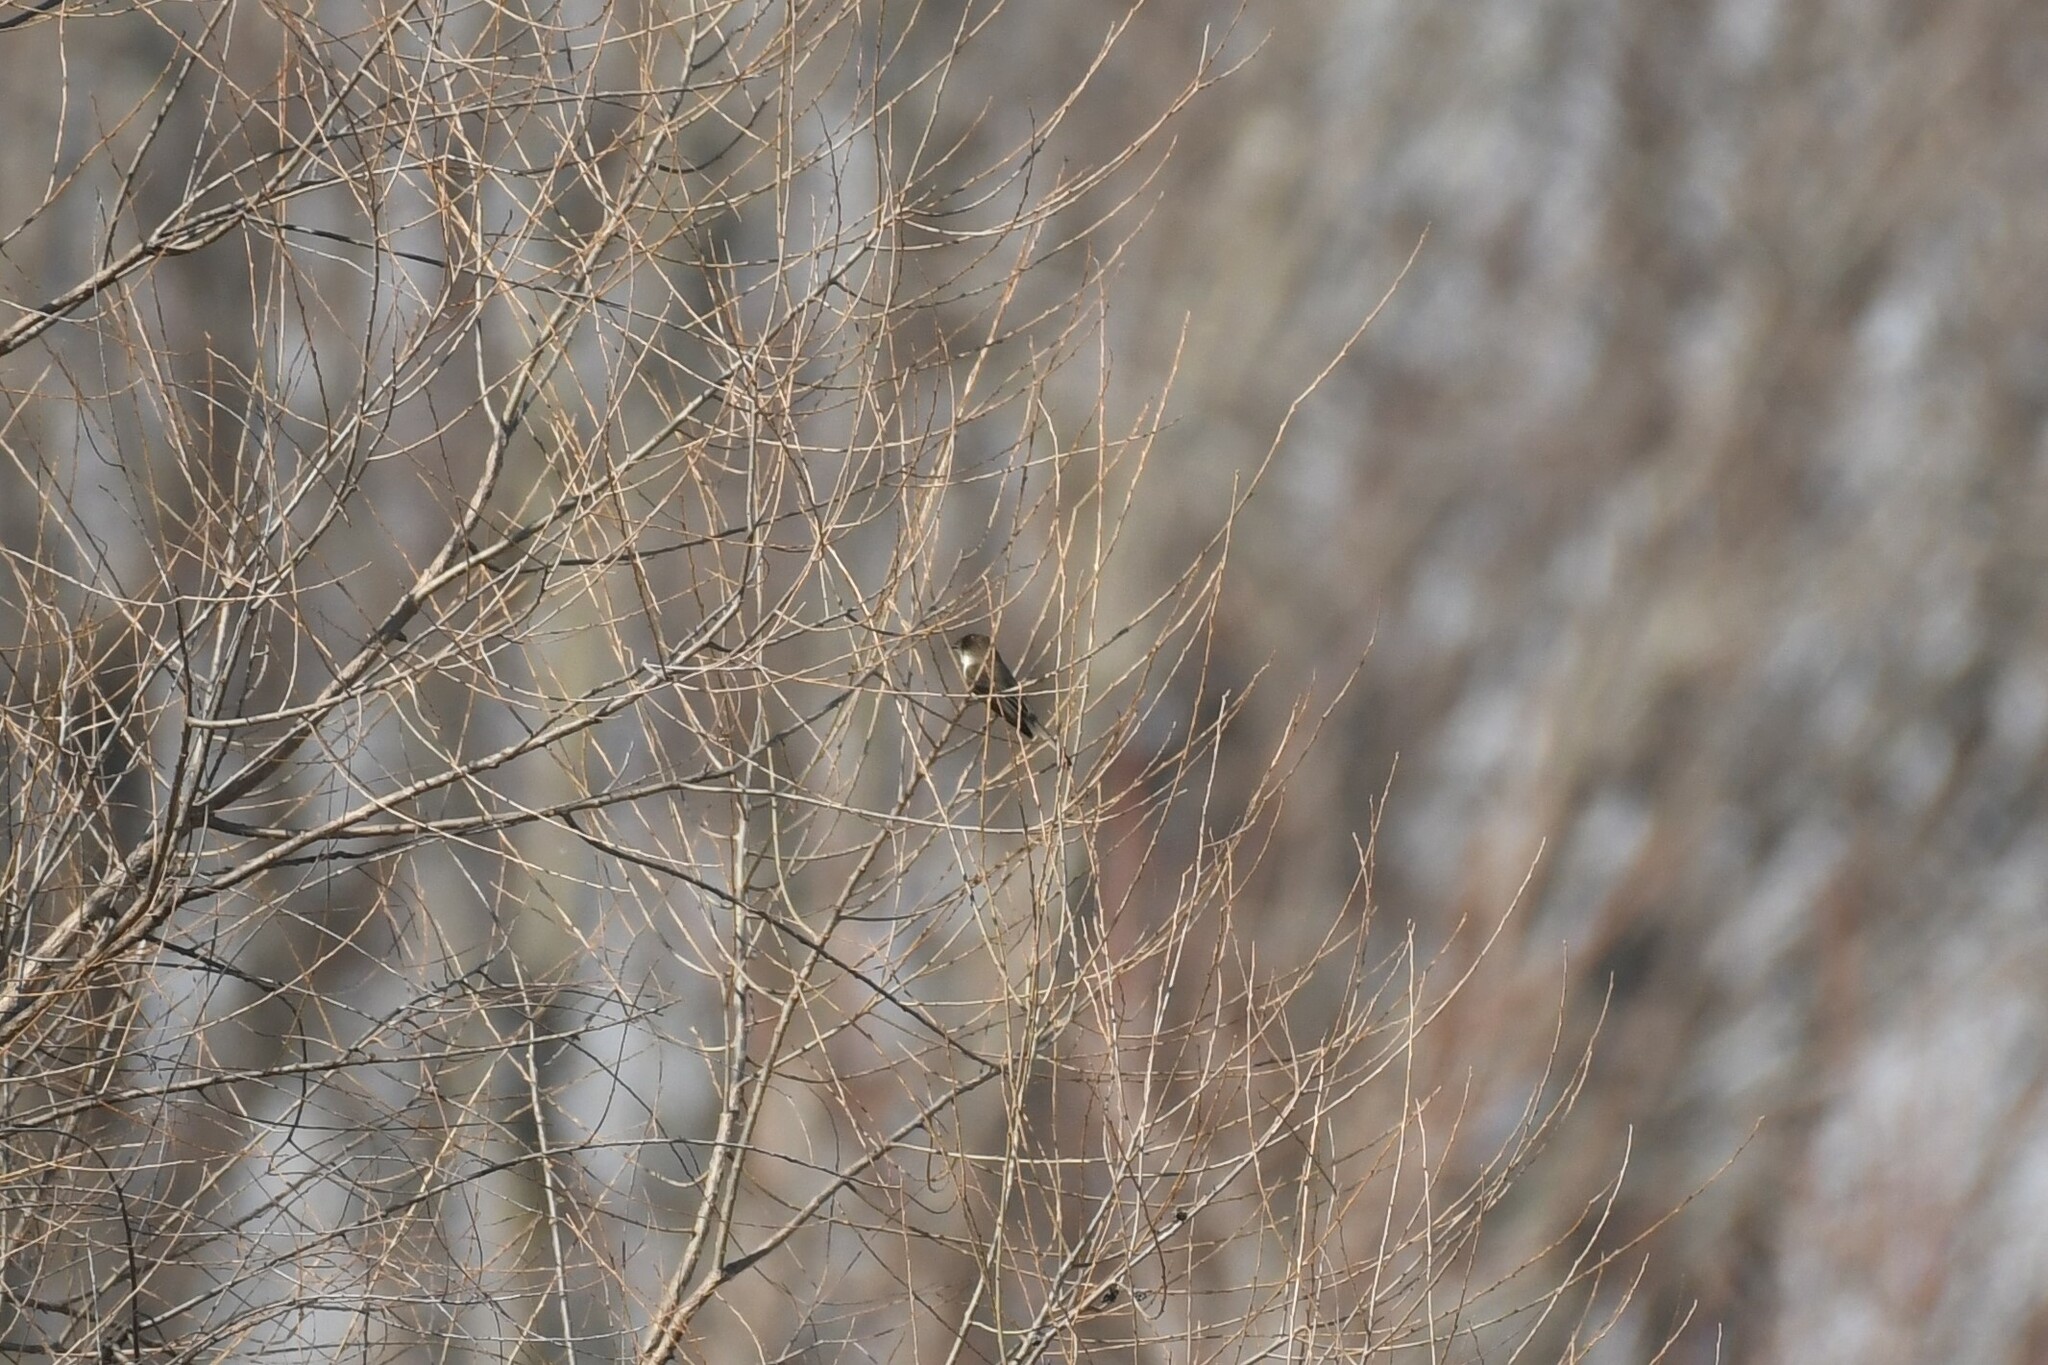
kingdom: Animalia
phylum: Chordata
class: Aves
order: Passeriformes
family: Tyrannidae
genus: Sayornis
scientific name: Sayornis phoebe
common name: Eastern phoebe
